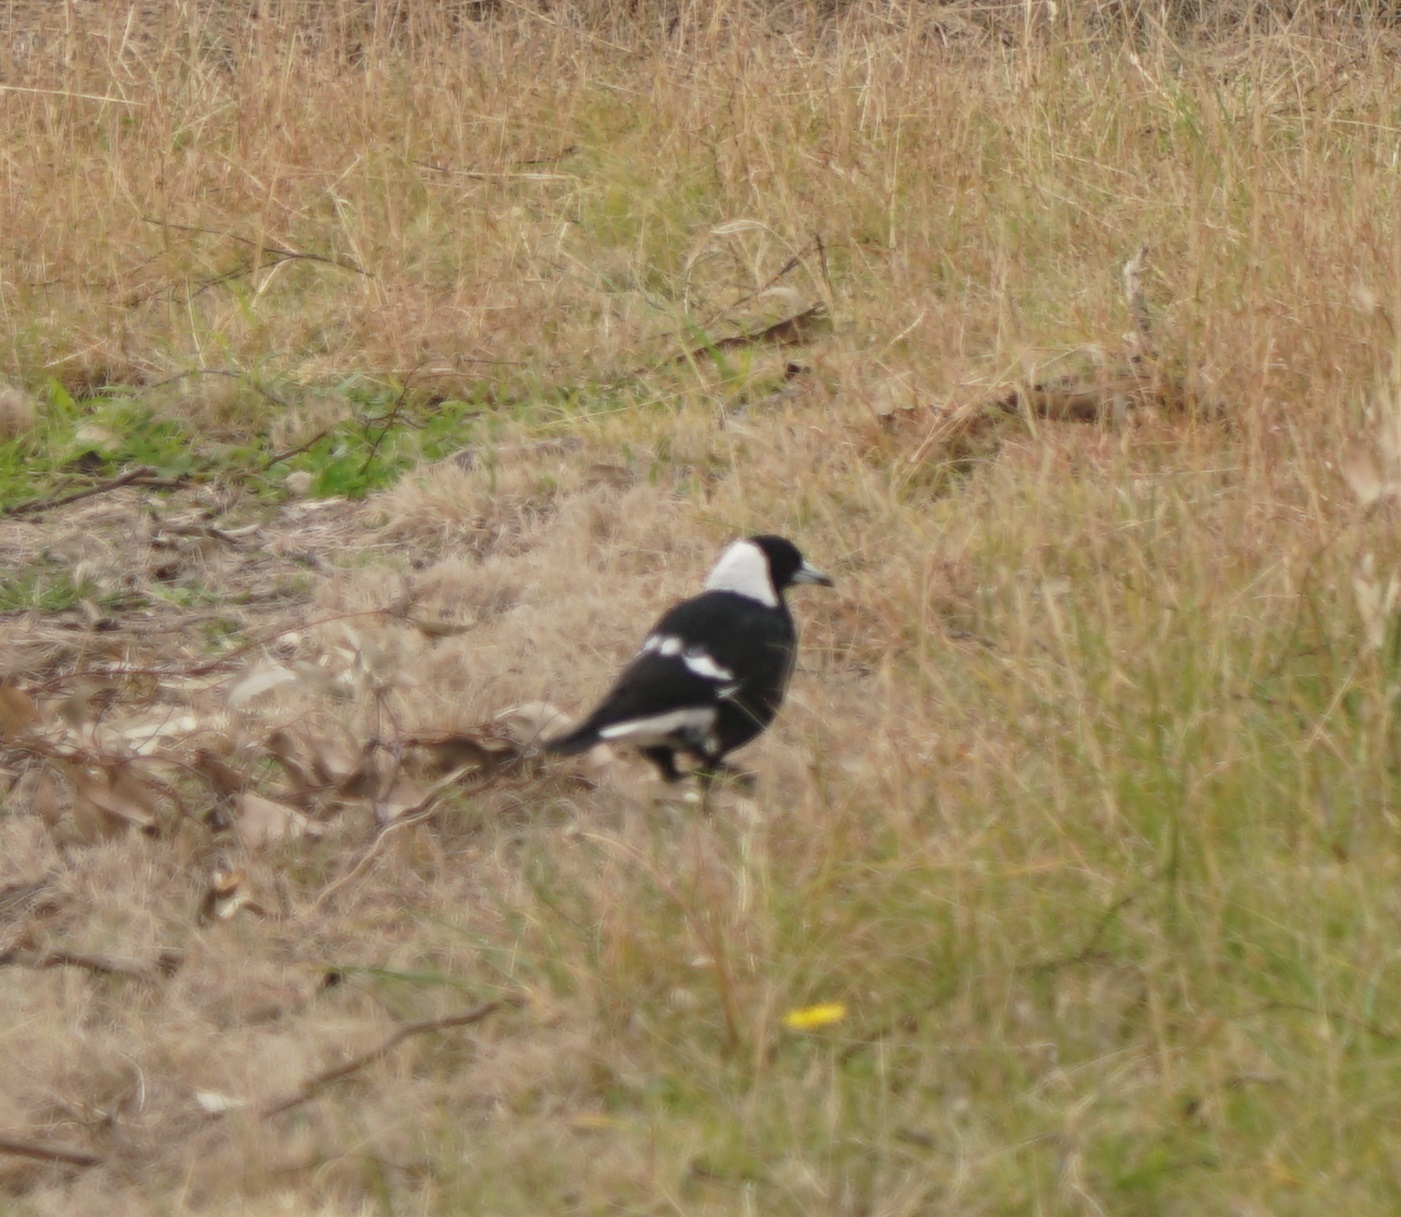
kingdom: Animalia
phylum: Chordata
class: Aves
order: Passeriformes
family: Cracticidae
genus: Gymnorhina
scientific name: Gymnorhina tibicen
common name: Australian magpie
